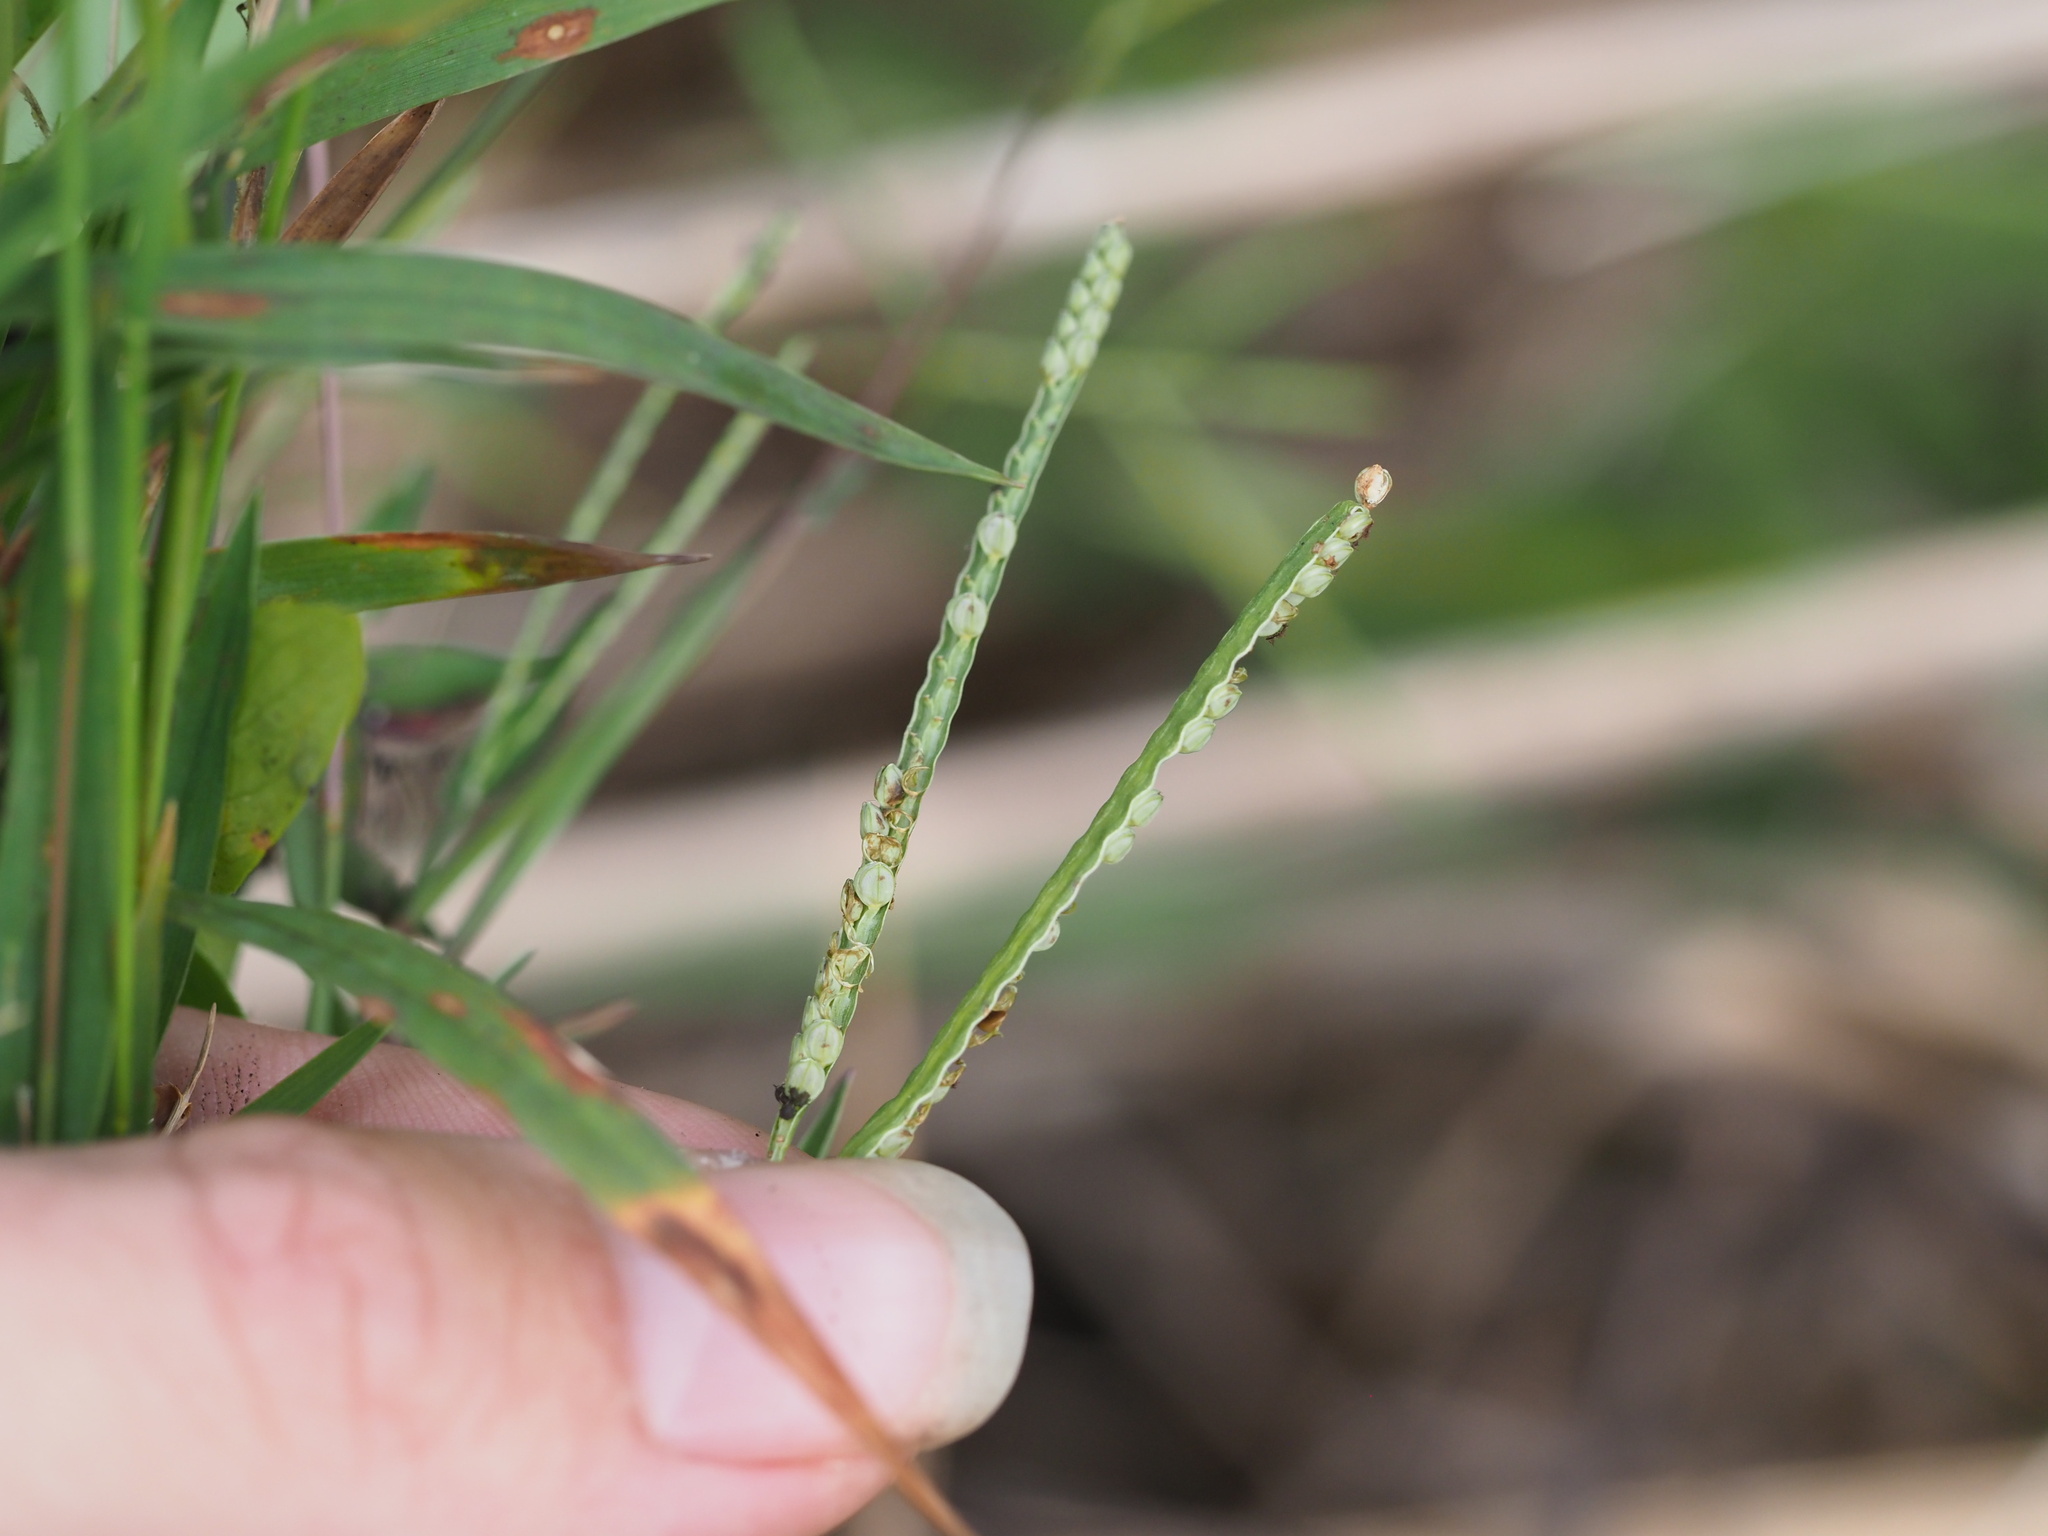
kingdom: Plantae
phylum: Tracheophyta
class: Liliopsida
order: Poales
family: Poaceae
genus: Paspalum
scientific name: Paspalum scrobiculatum
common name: Kodo millet
